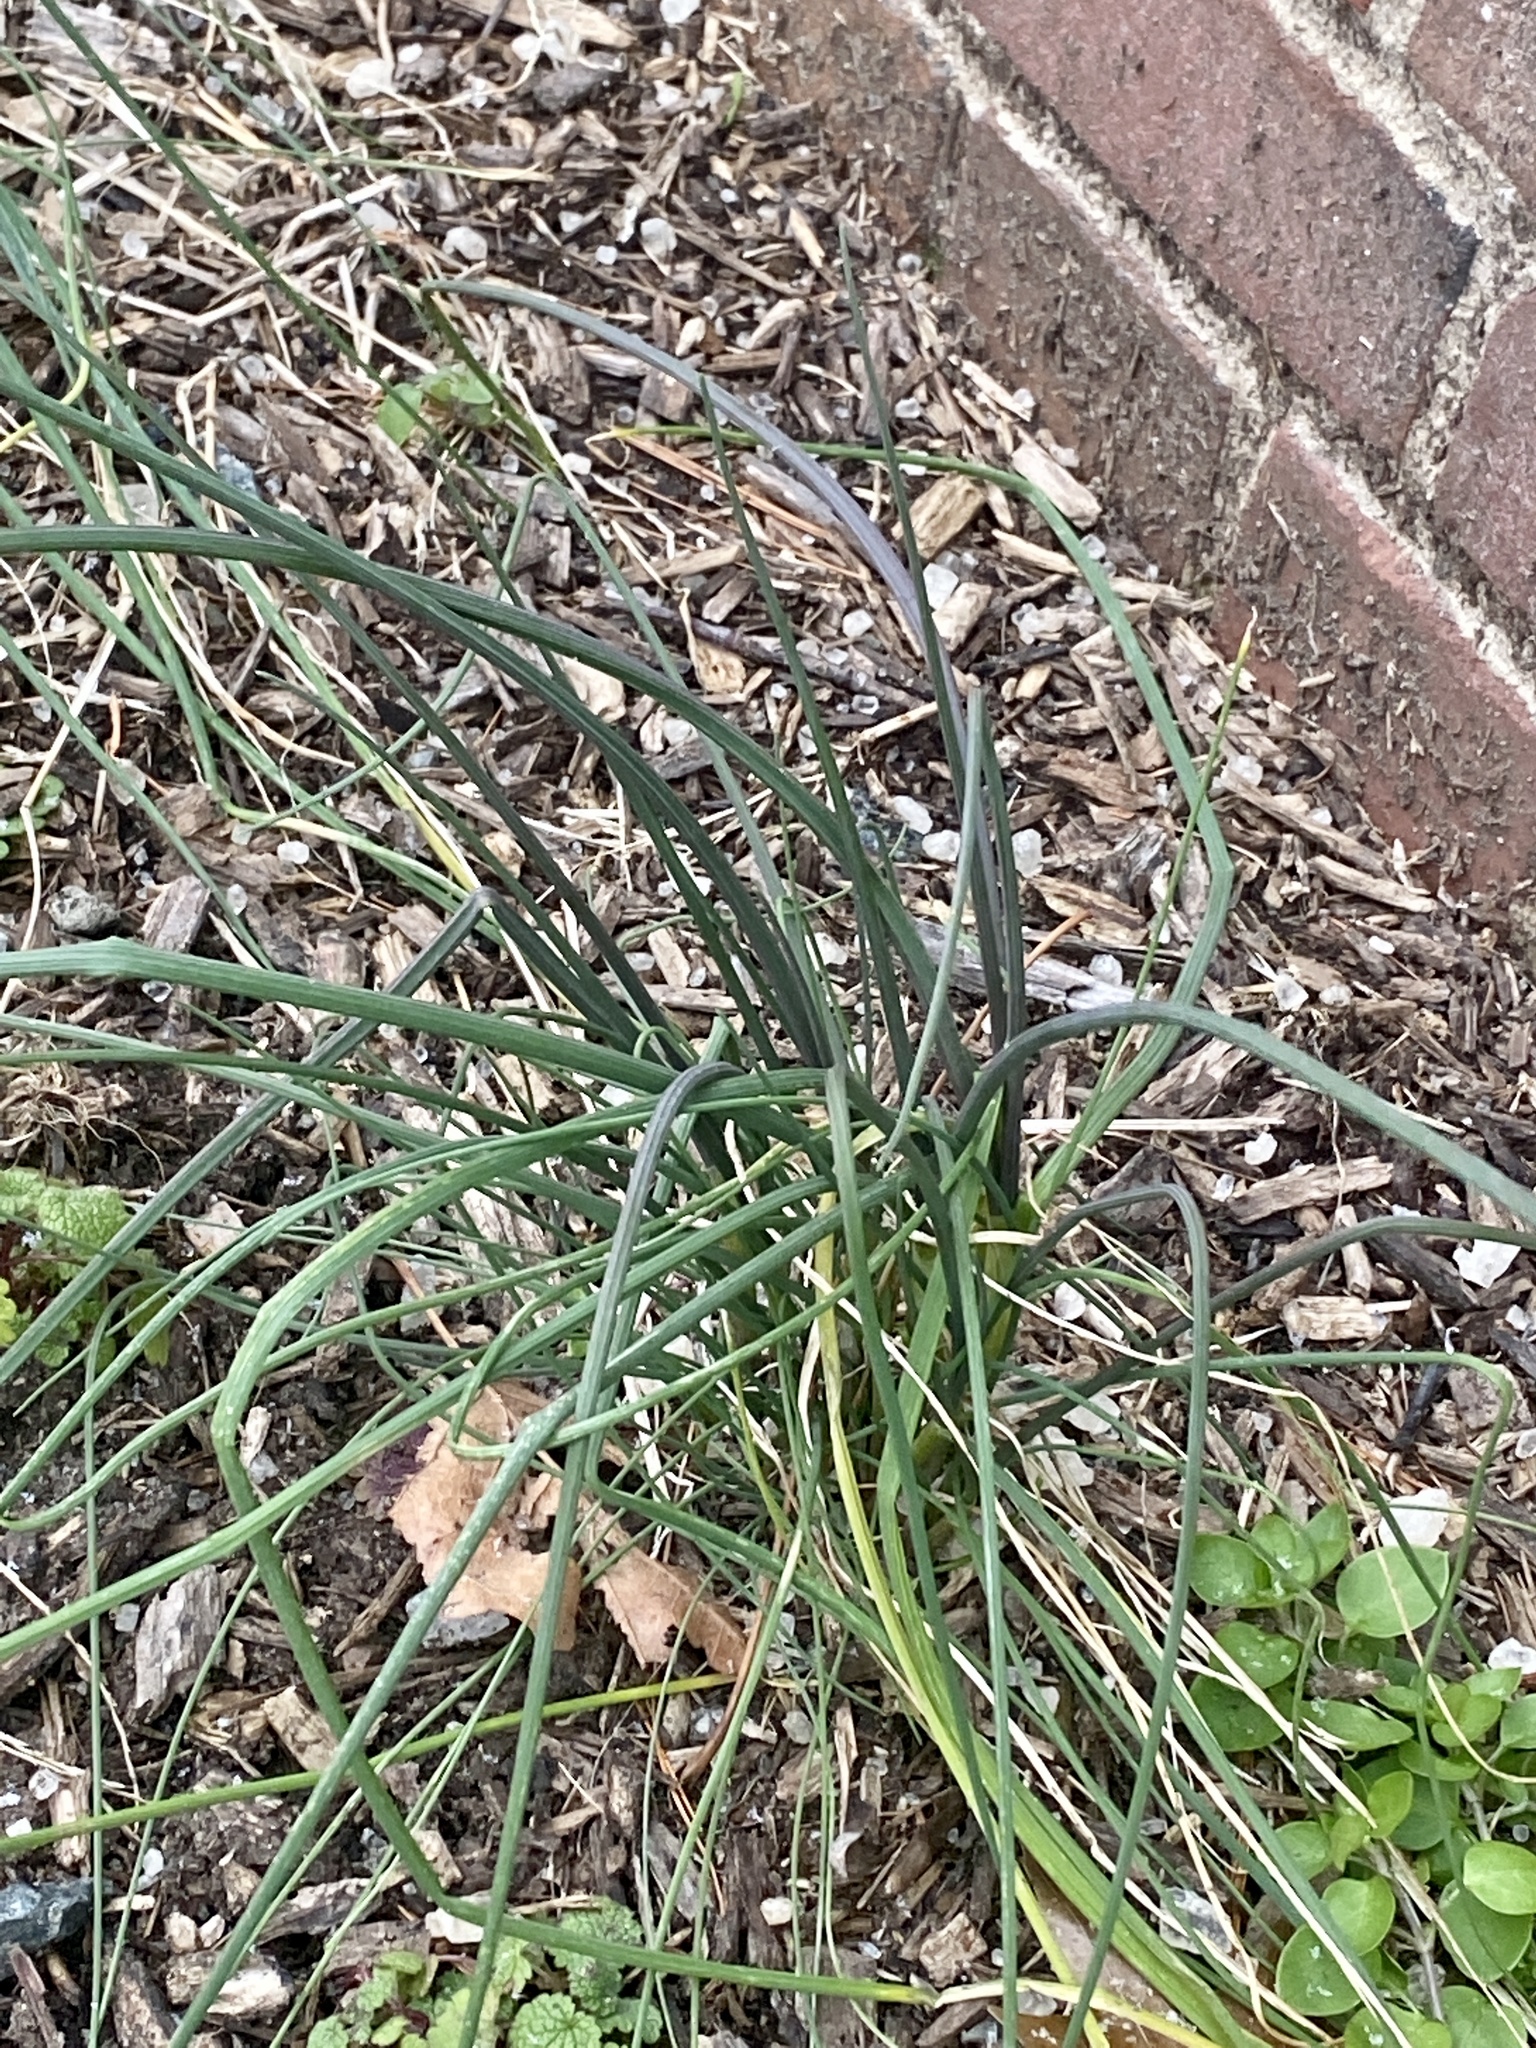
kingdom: Plantae
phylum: Tracheophyta
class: Liliopsida
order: Asparagales
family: Amaryllidaceae
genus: Allium
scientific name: Allium vineale
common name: Crow garlic
